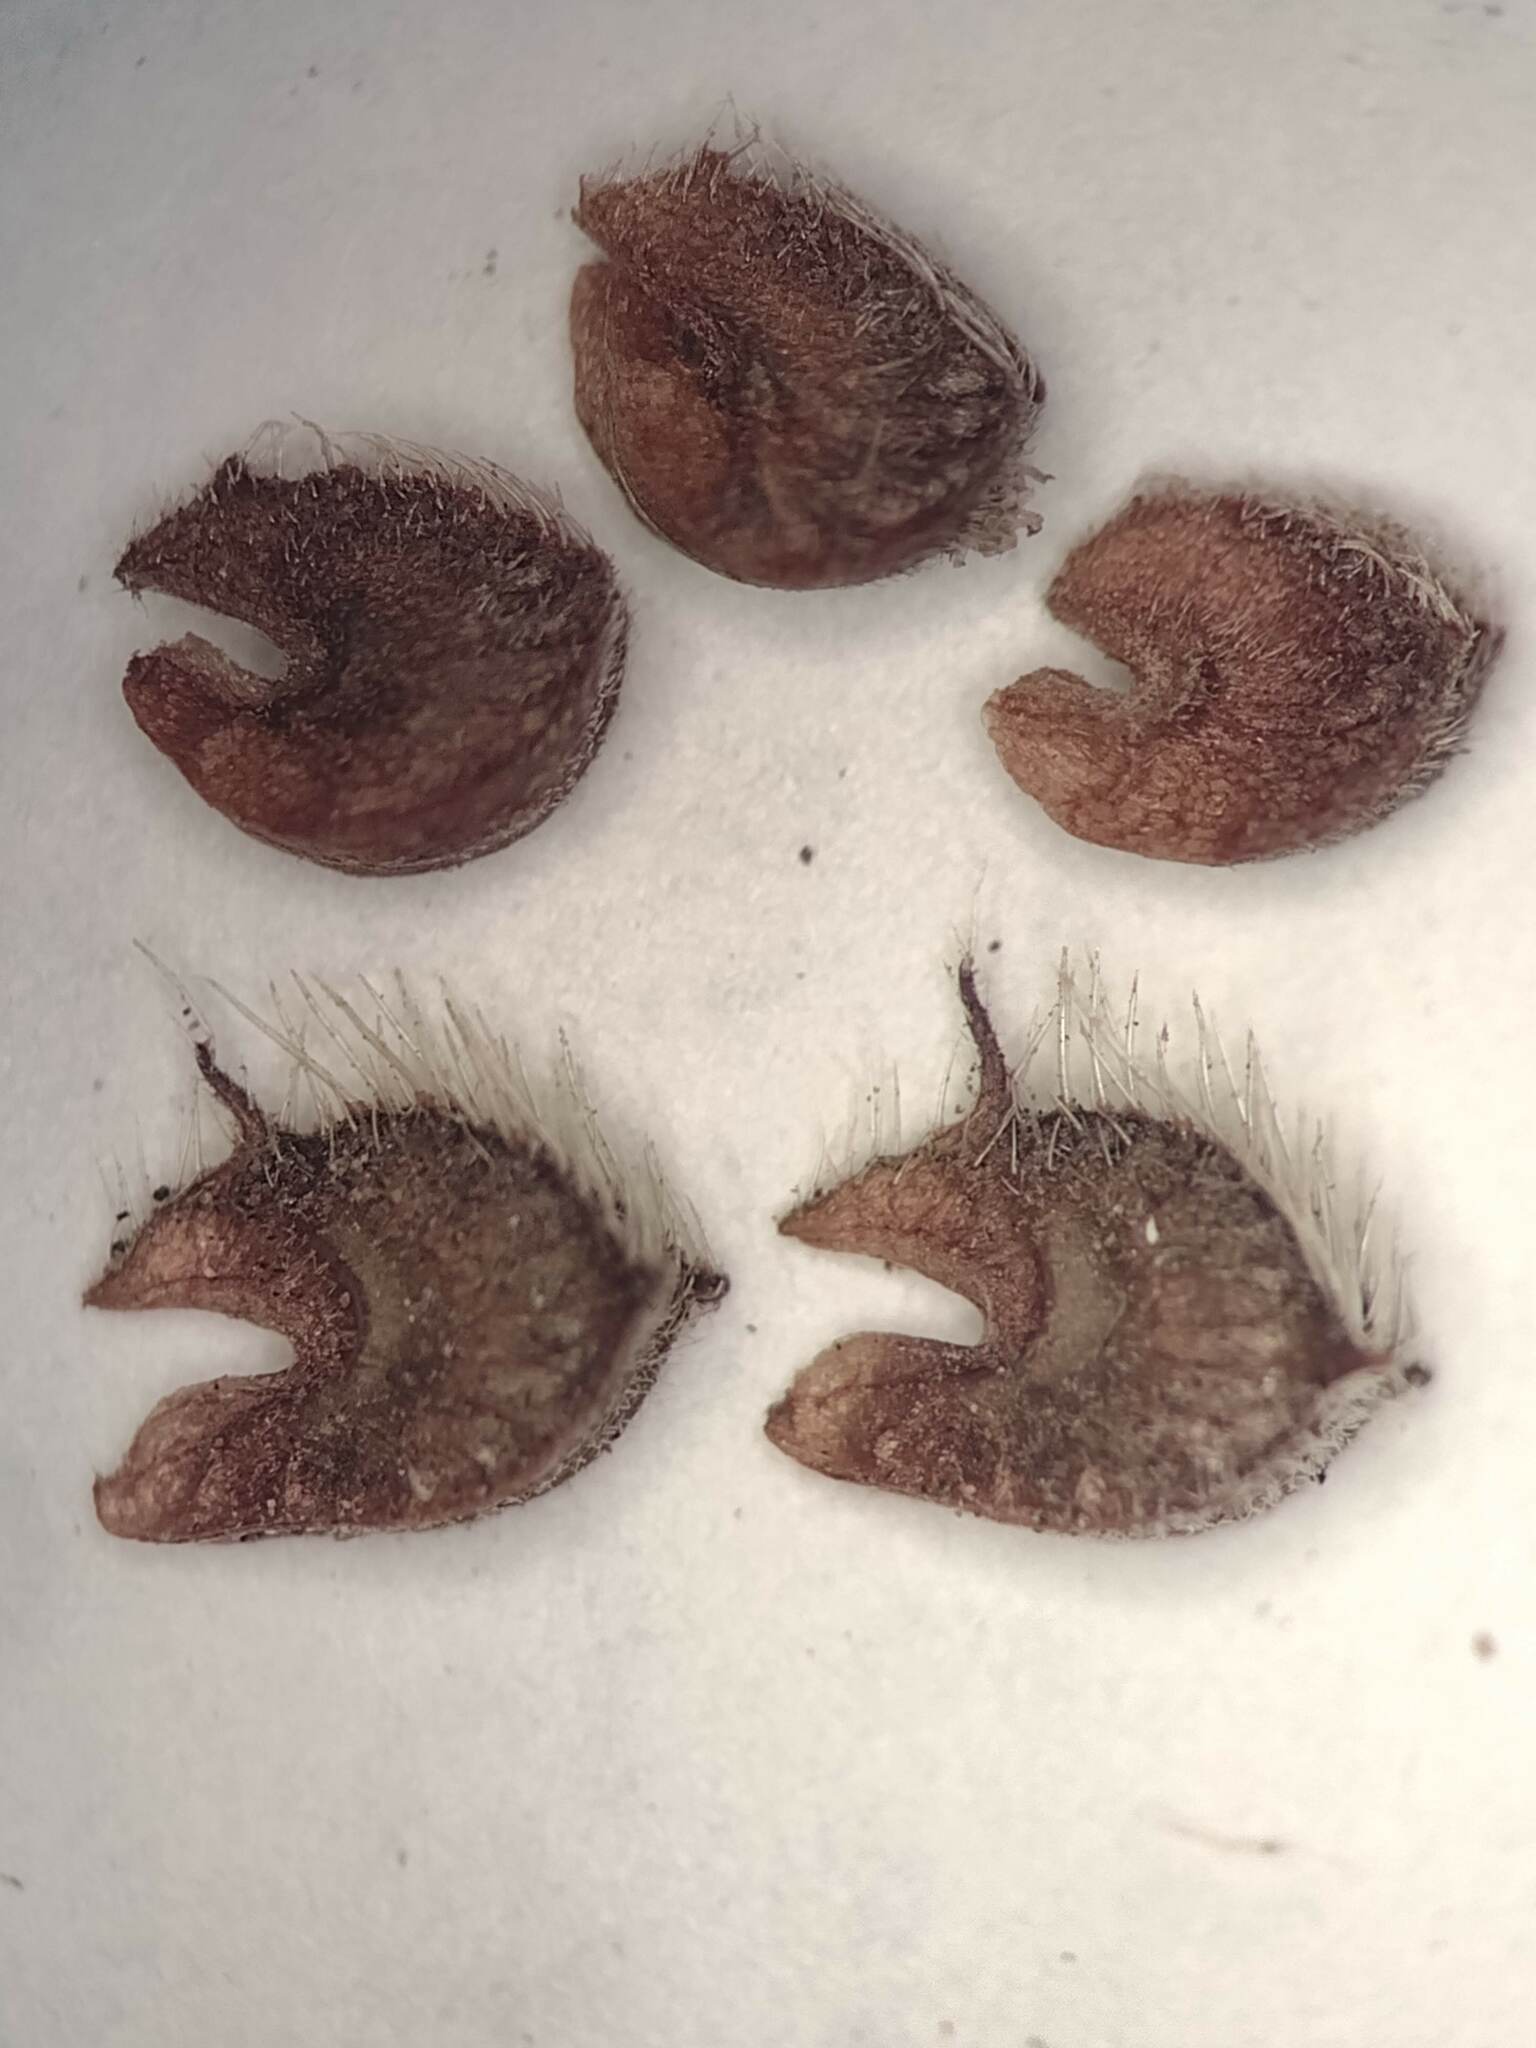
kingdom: Plantae
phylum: Tracheophyta
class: Magnoliopsida
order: Malvales
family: Malvaceae
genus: Malvastrum
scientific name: Malvastrum
